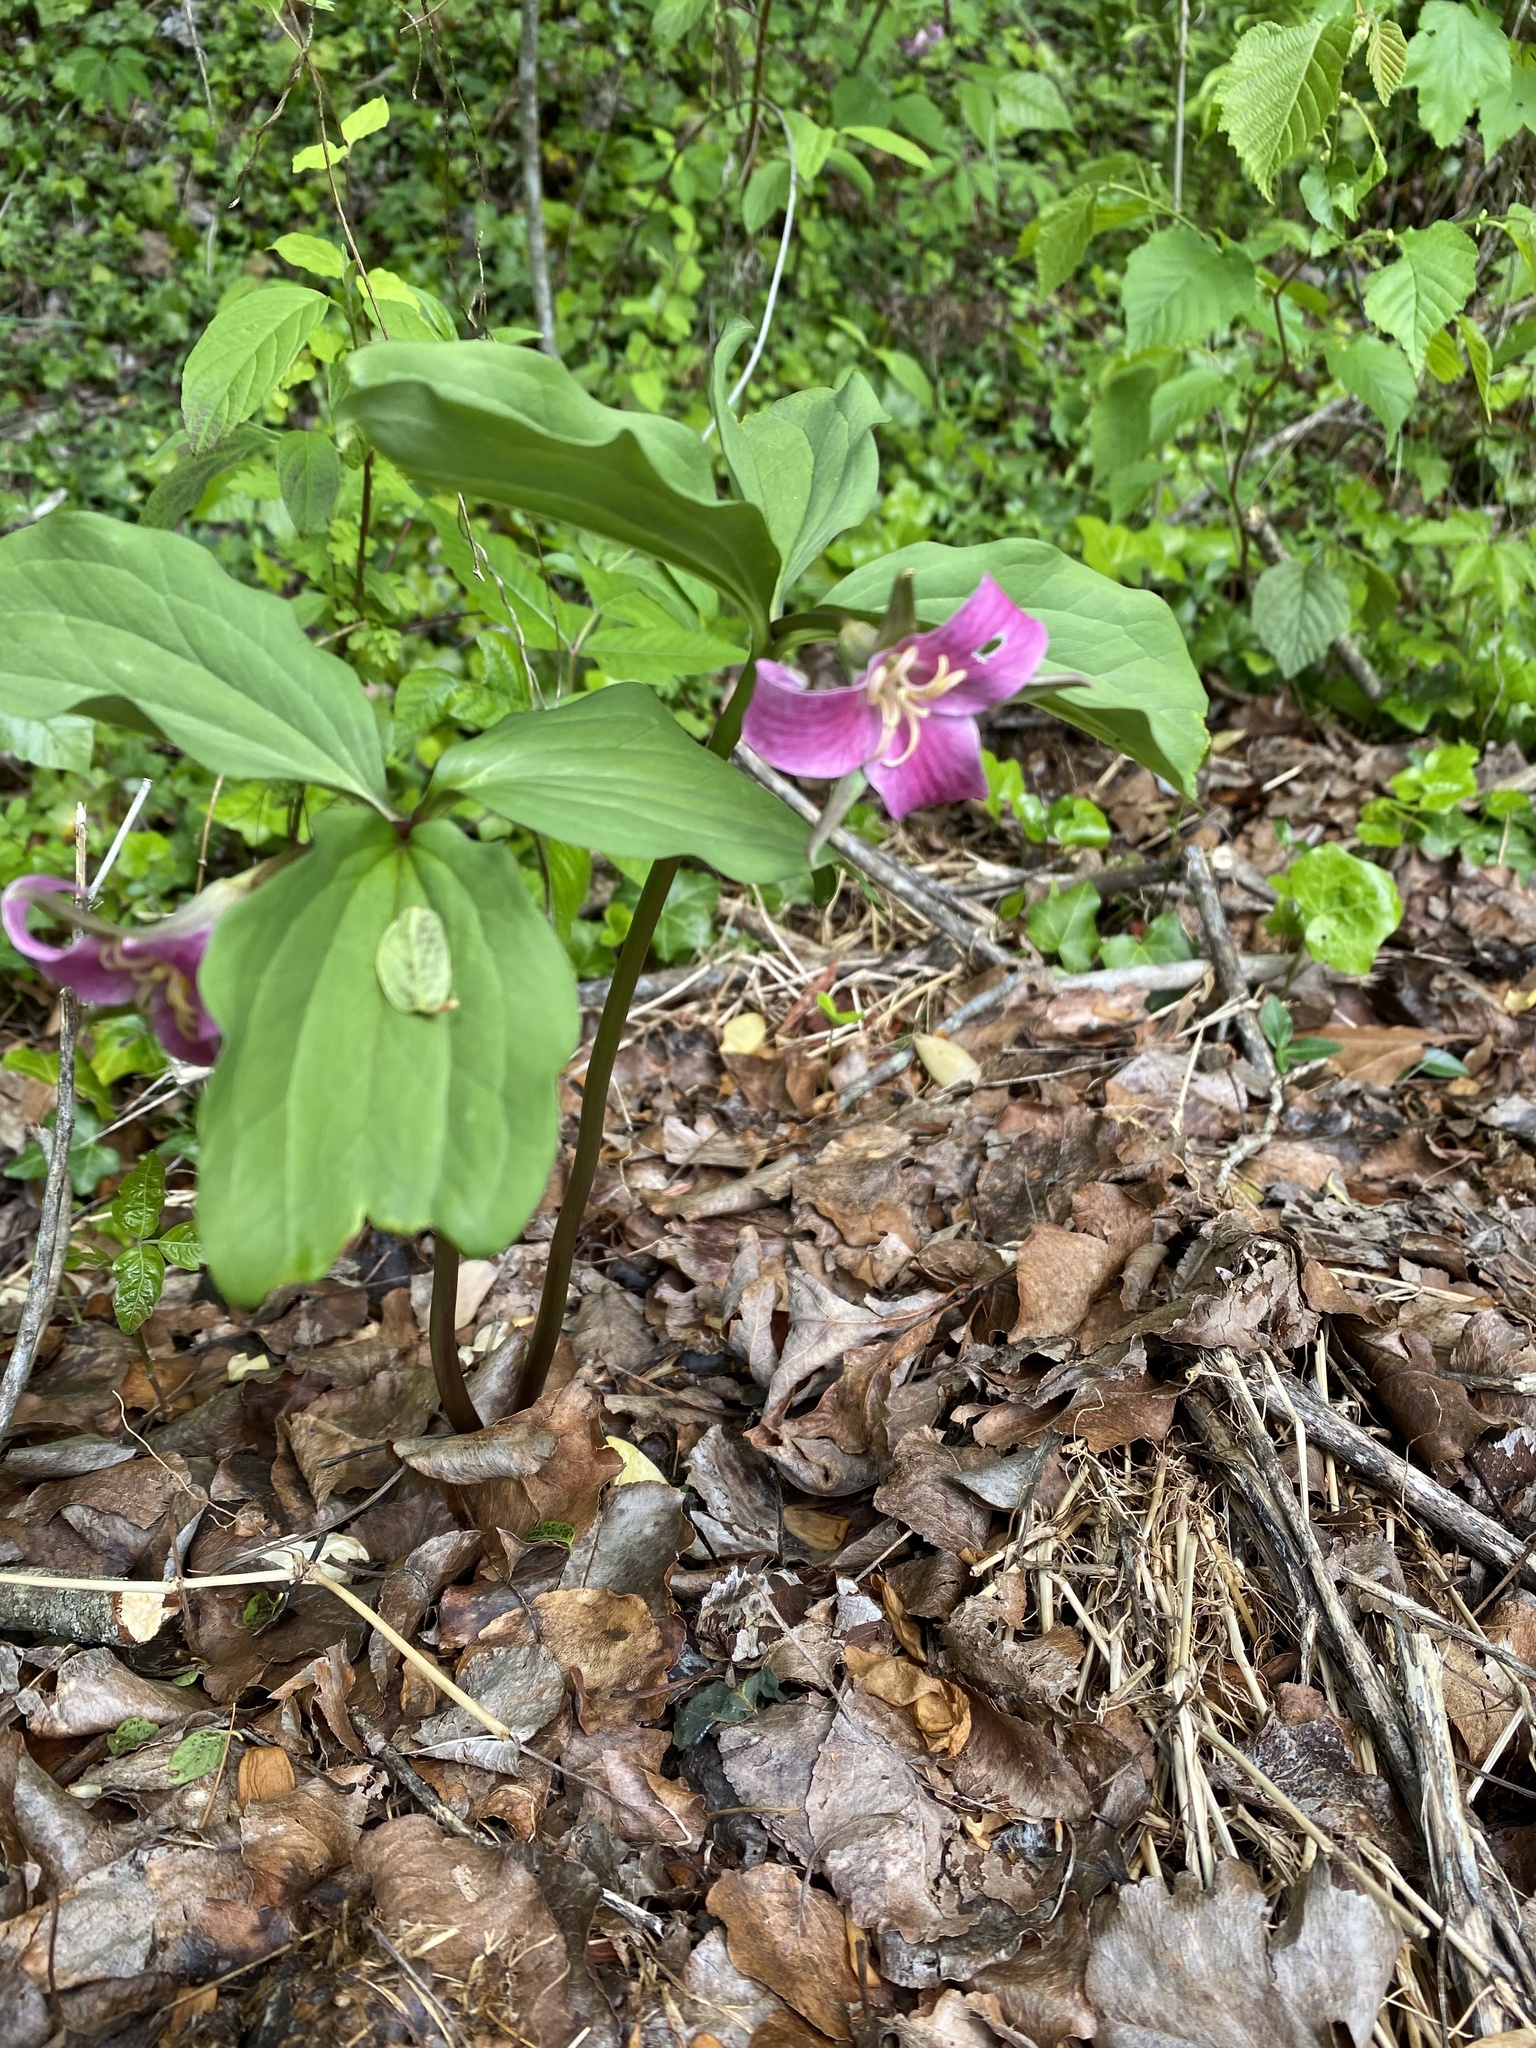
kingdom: Plantae
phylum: Tracheophyta
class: Liliopsida
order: Liliales
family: Melanthiaceae
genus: Trillium
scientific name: Trillium catesbaei
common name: Bashful trillium
